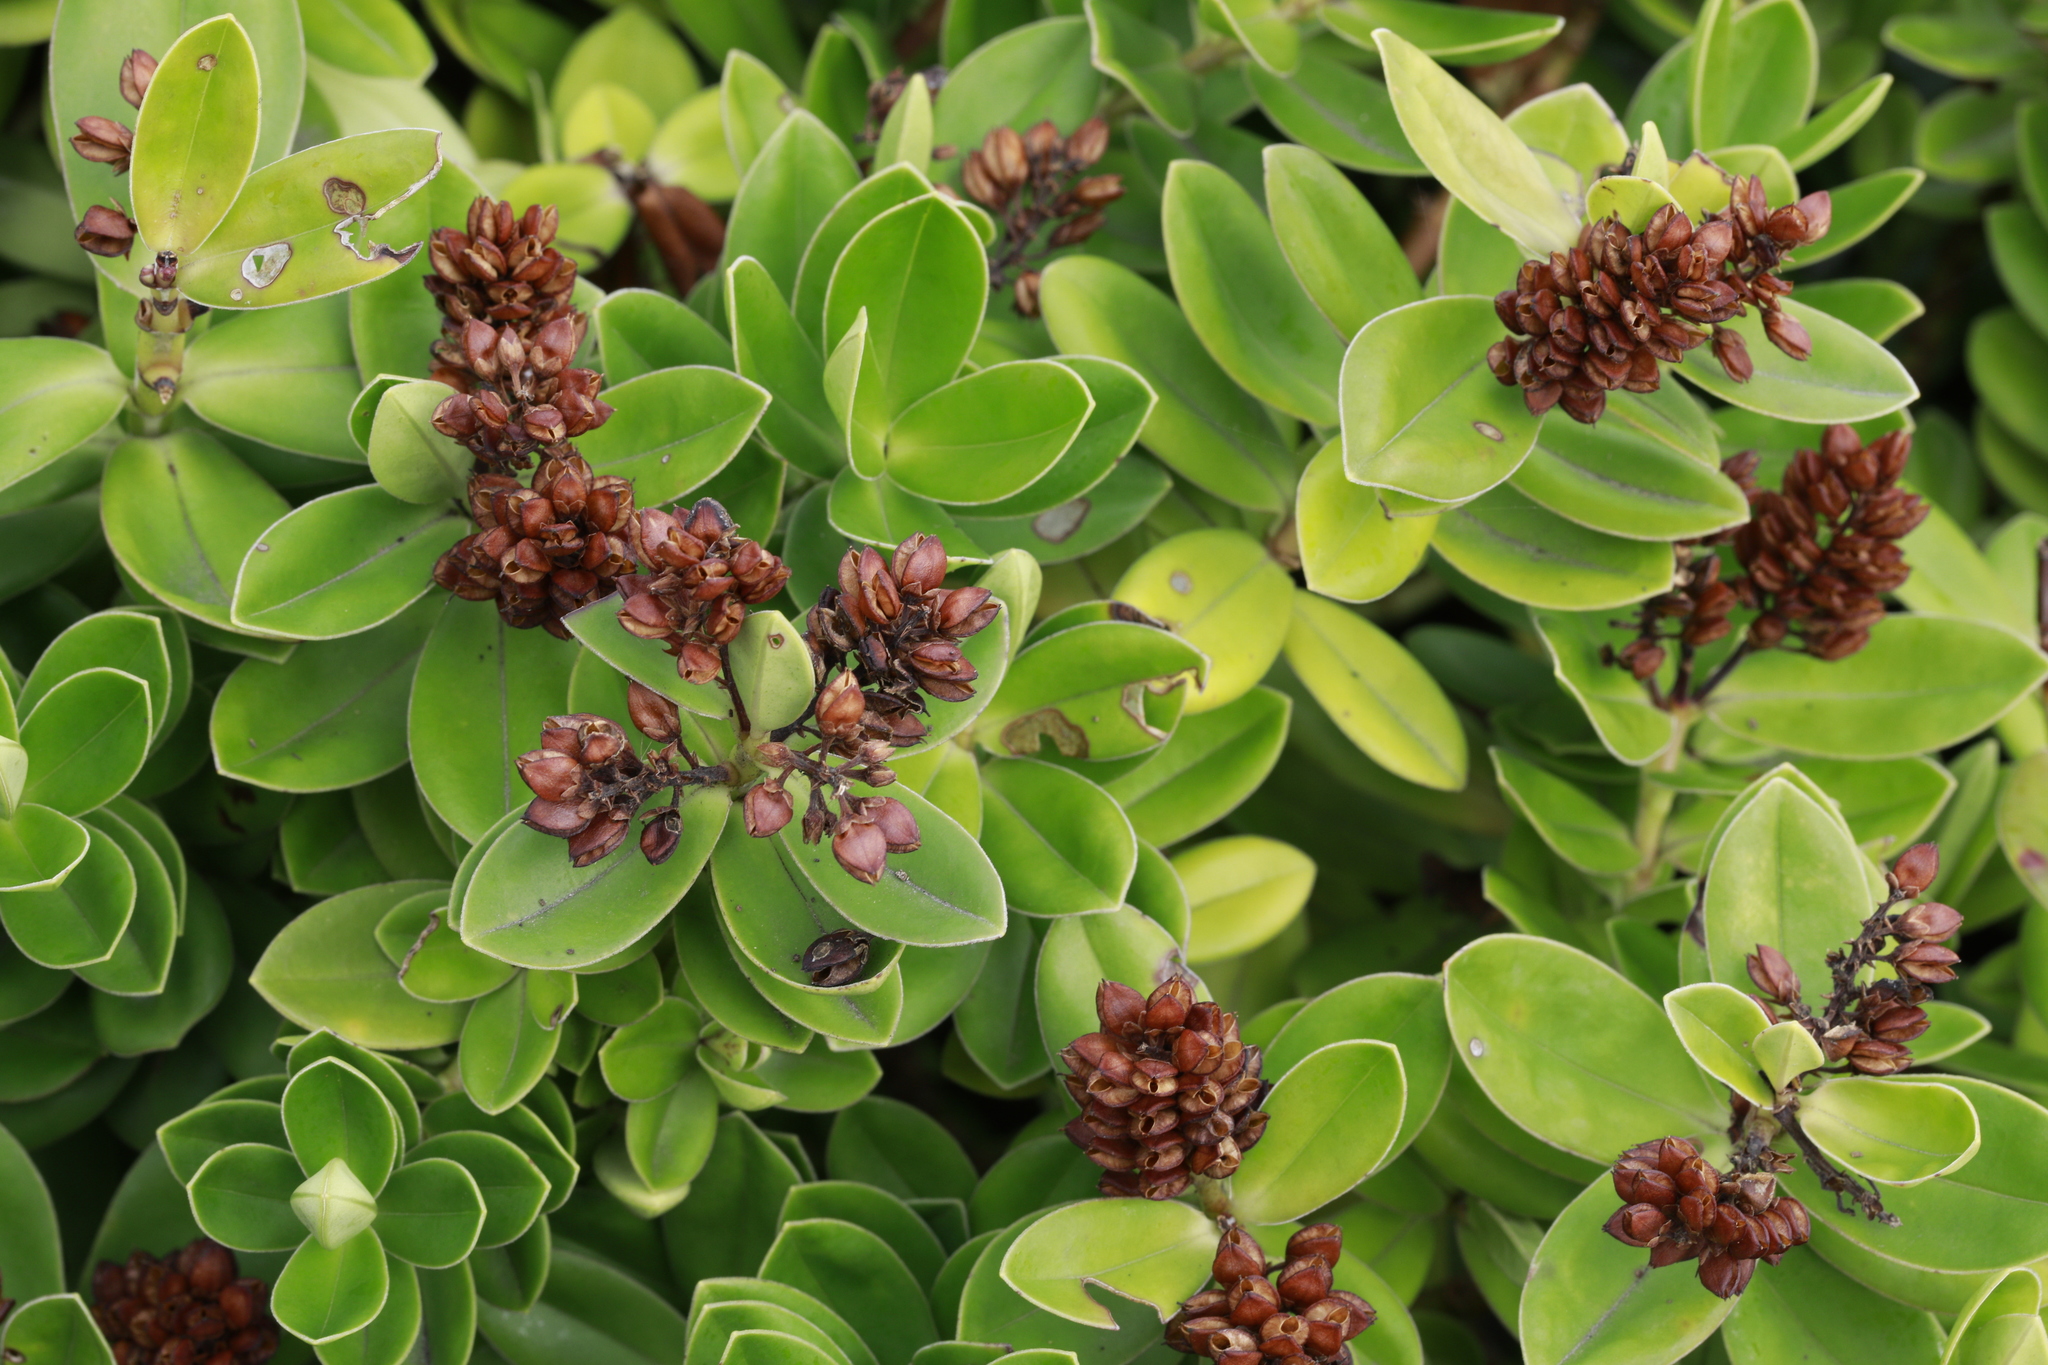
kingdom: Plantae
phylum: Tracheophyta
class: Magnoliopsida
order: Lamiales
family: Plantaginaceae
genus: Veronica
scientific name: Veronica franciscana
